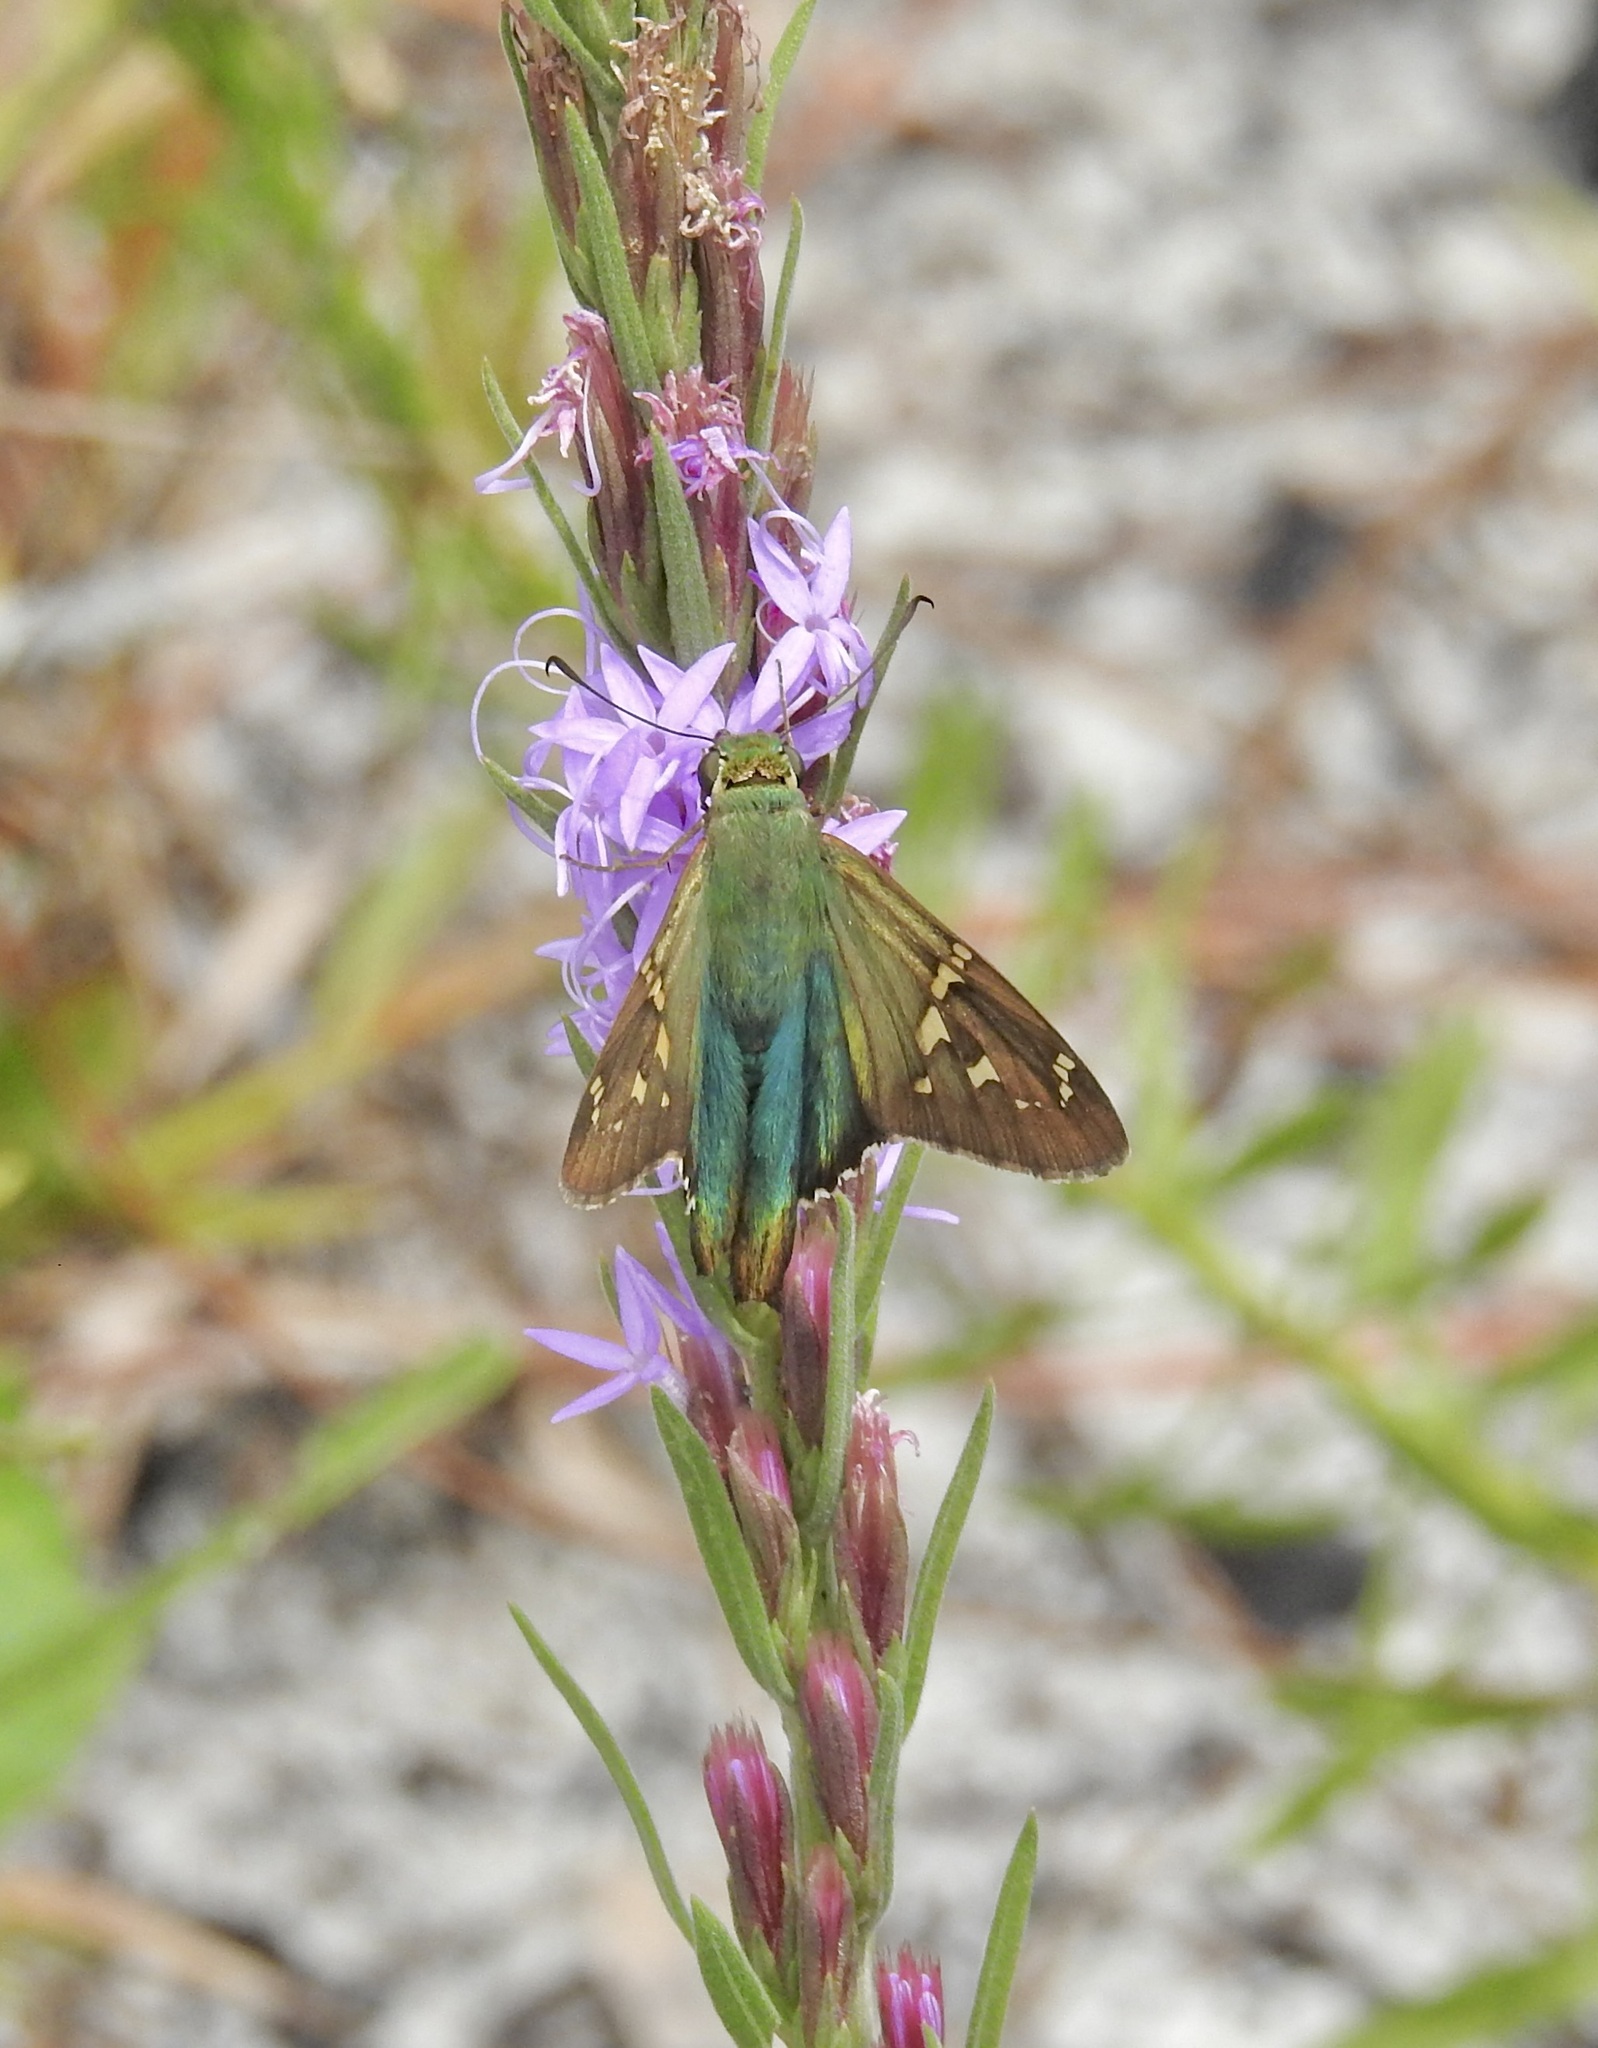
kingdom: Animalia
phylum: Arthropoda
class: Insecta
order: Lepidoptera
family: Hesperiidae
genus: Urbanus
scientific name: Urbanus proteus
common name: Long-tailed skipper
